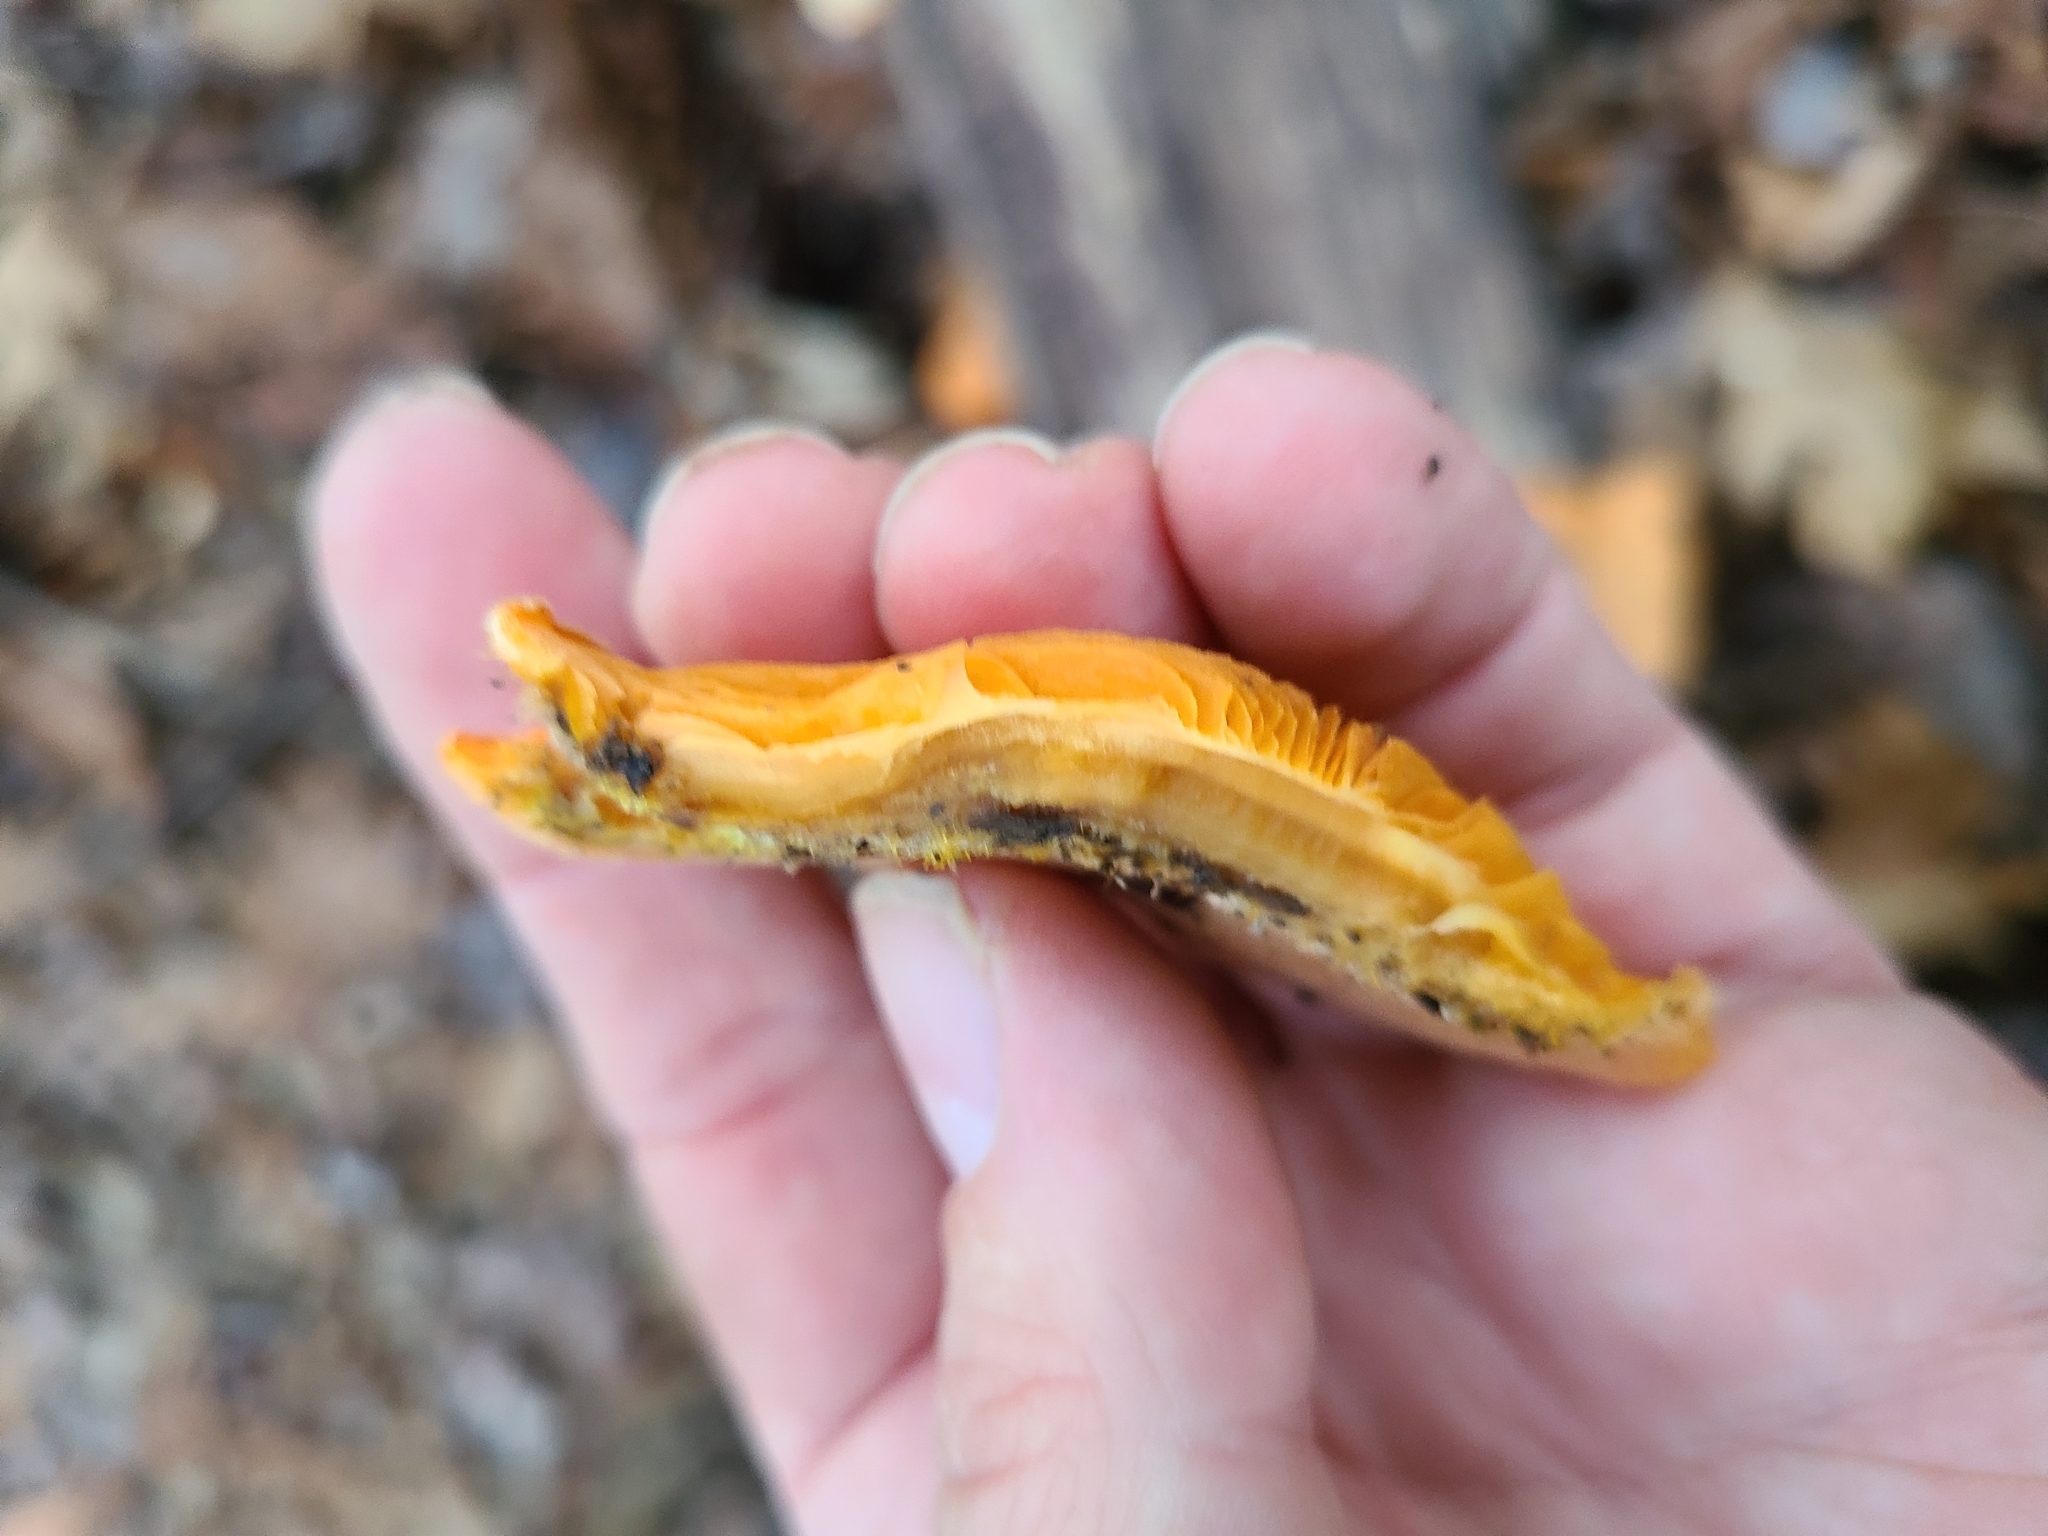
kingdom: Fungi
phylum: Basidiomycota
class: Agaricomycetes
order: Agaricales
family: Phyllotopsidaceae
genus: Phyllotopsis
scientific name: Phyllotopsis nidulans
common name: Orange mock oyster
